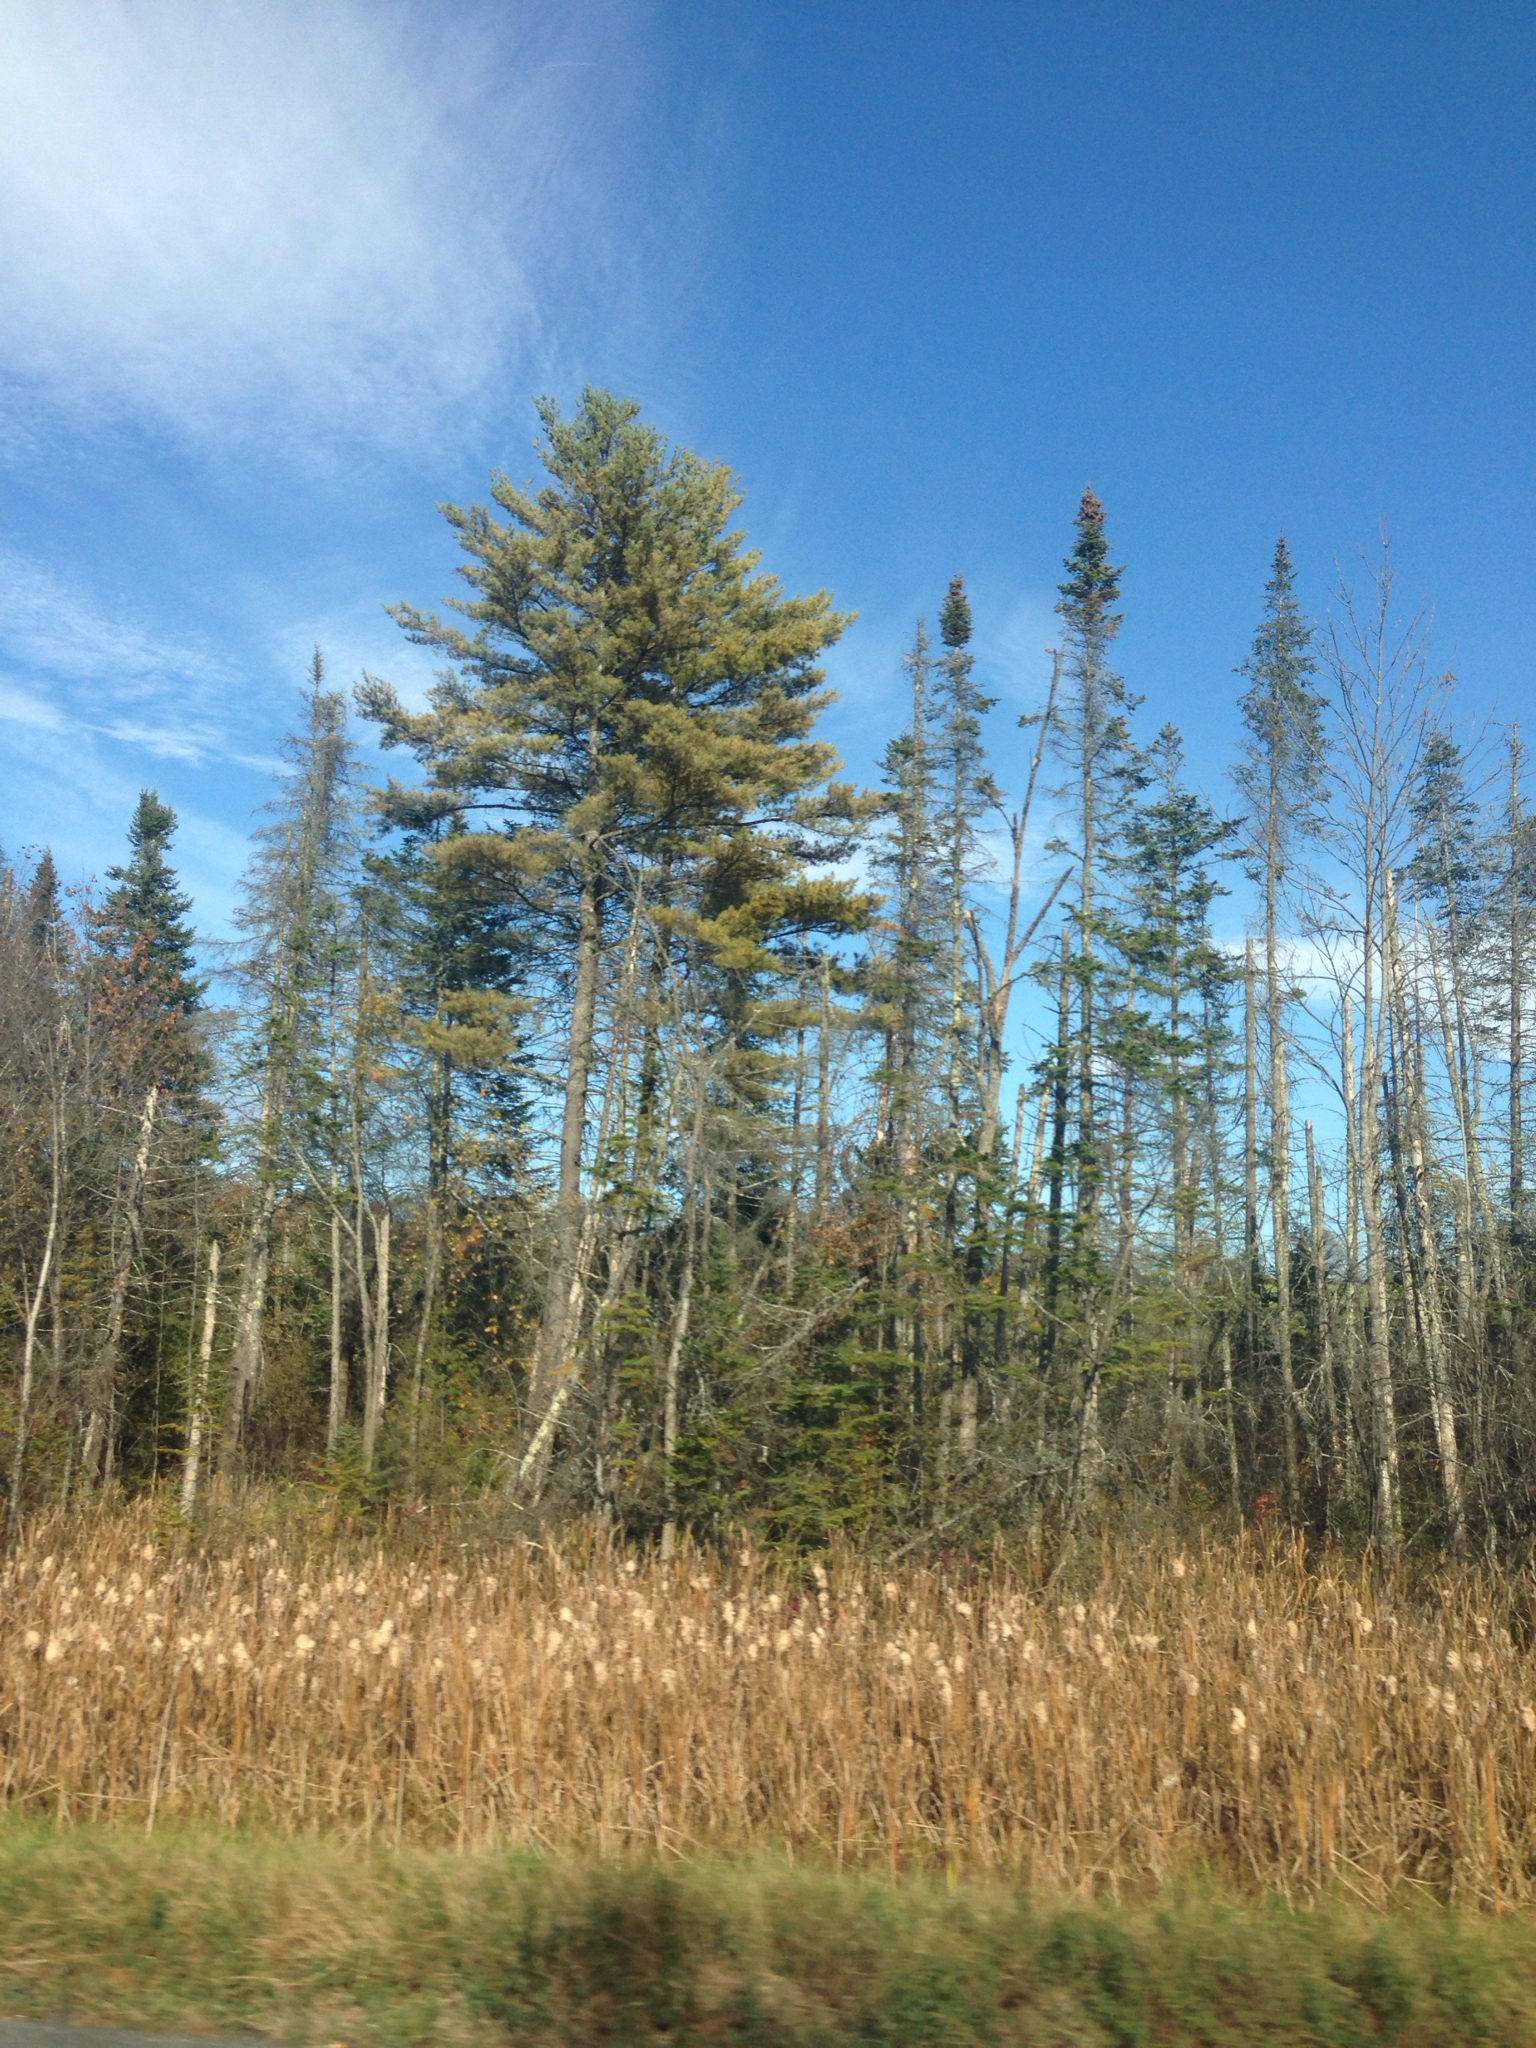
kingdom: Plantae
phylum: Tracheophyta
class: Liliopsida
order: Poales
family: Typhaceae
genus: Typha
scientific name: Typha
